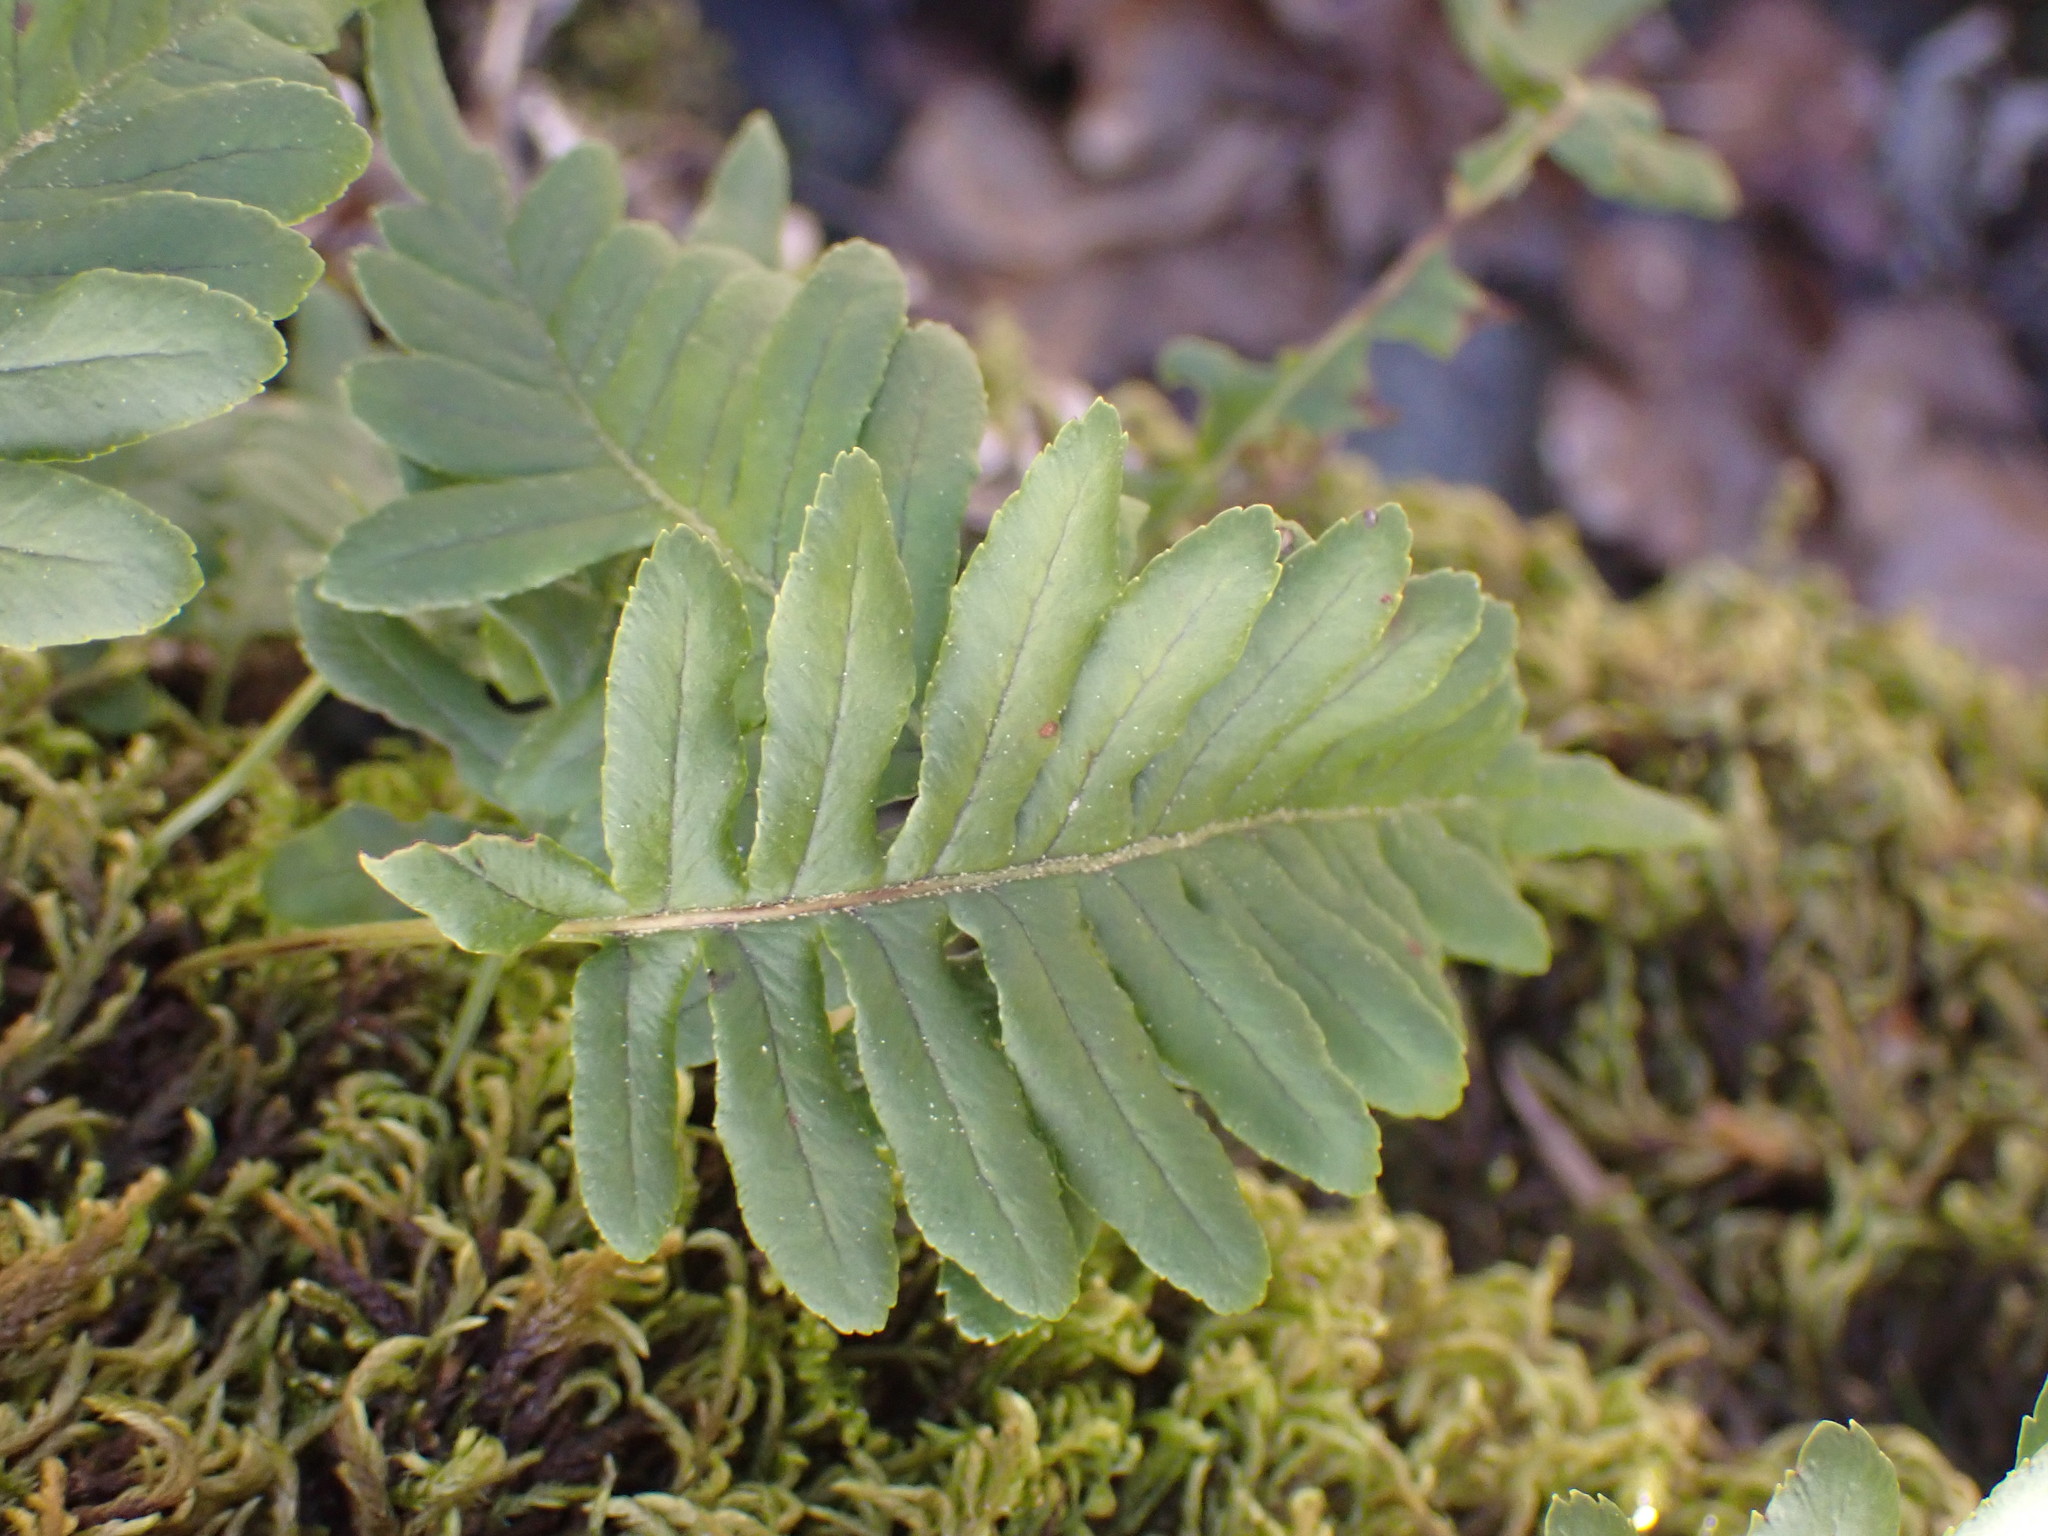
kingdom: Plantae
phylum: Tracheophyta
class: Polypodiopsida
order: Polypodiales
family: Polypodiaceae
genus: Polypodium
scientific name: Polypodium glycyrrhiza
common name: Licorice fern
